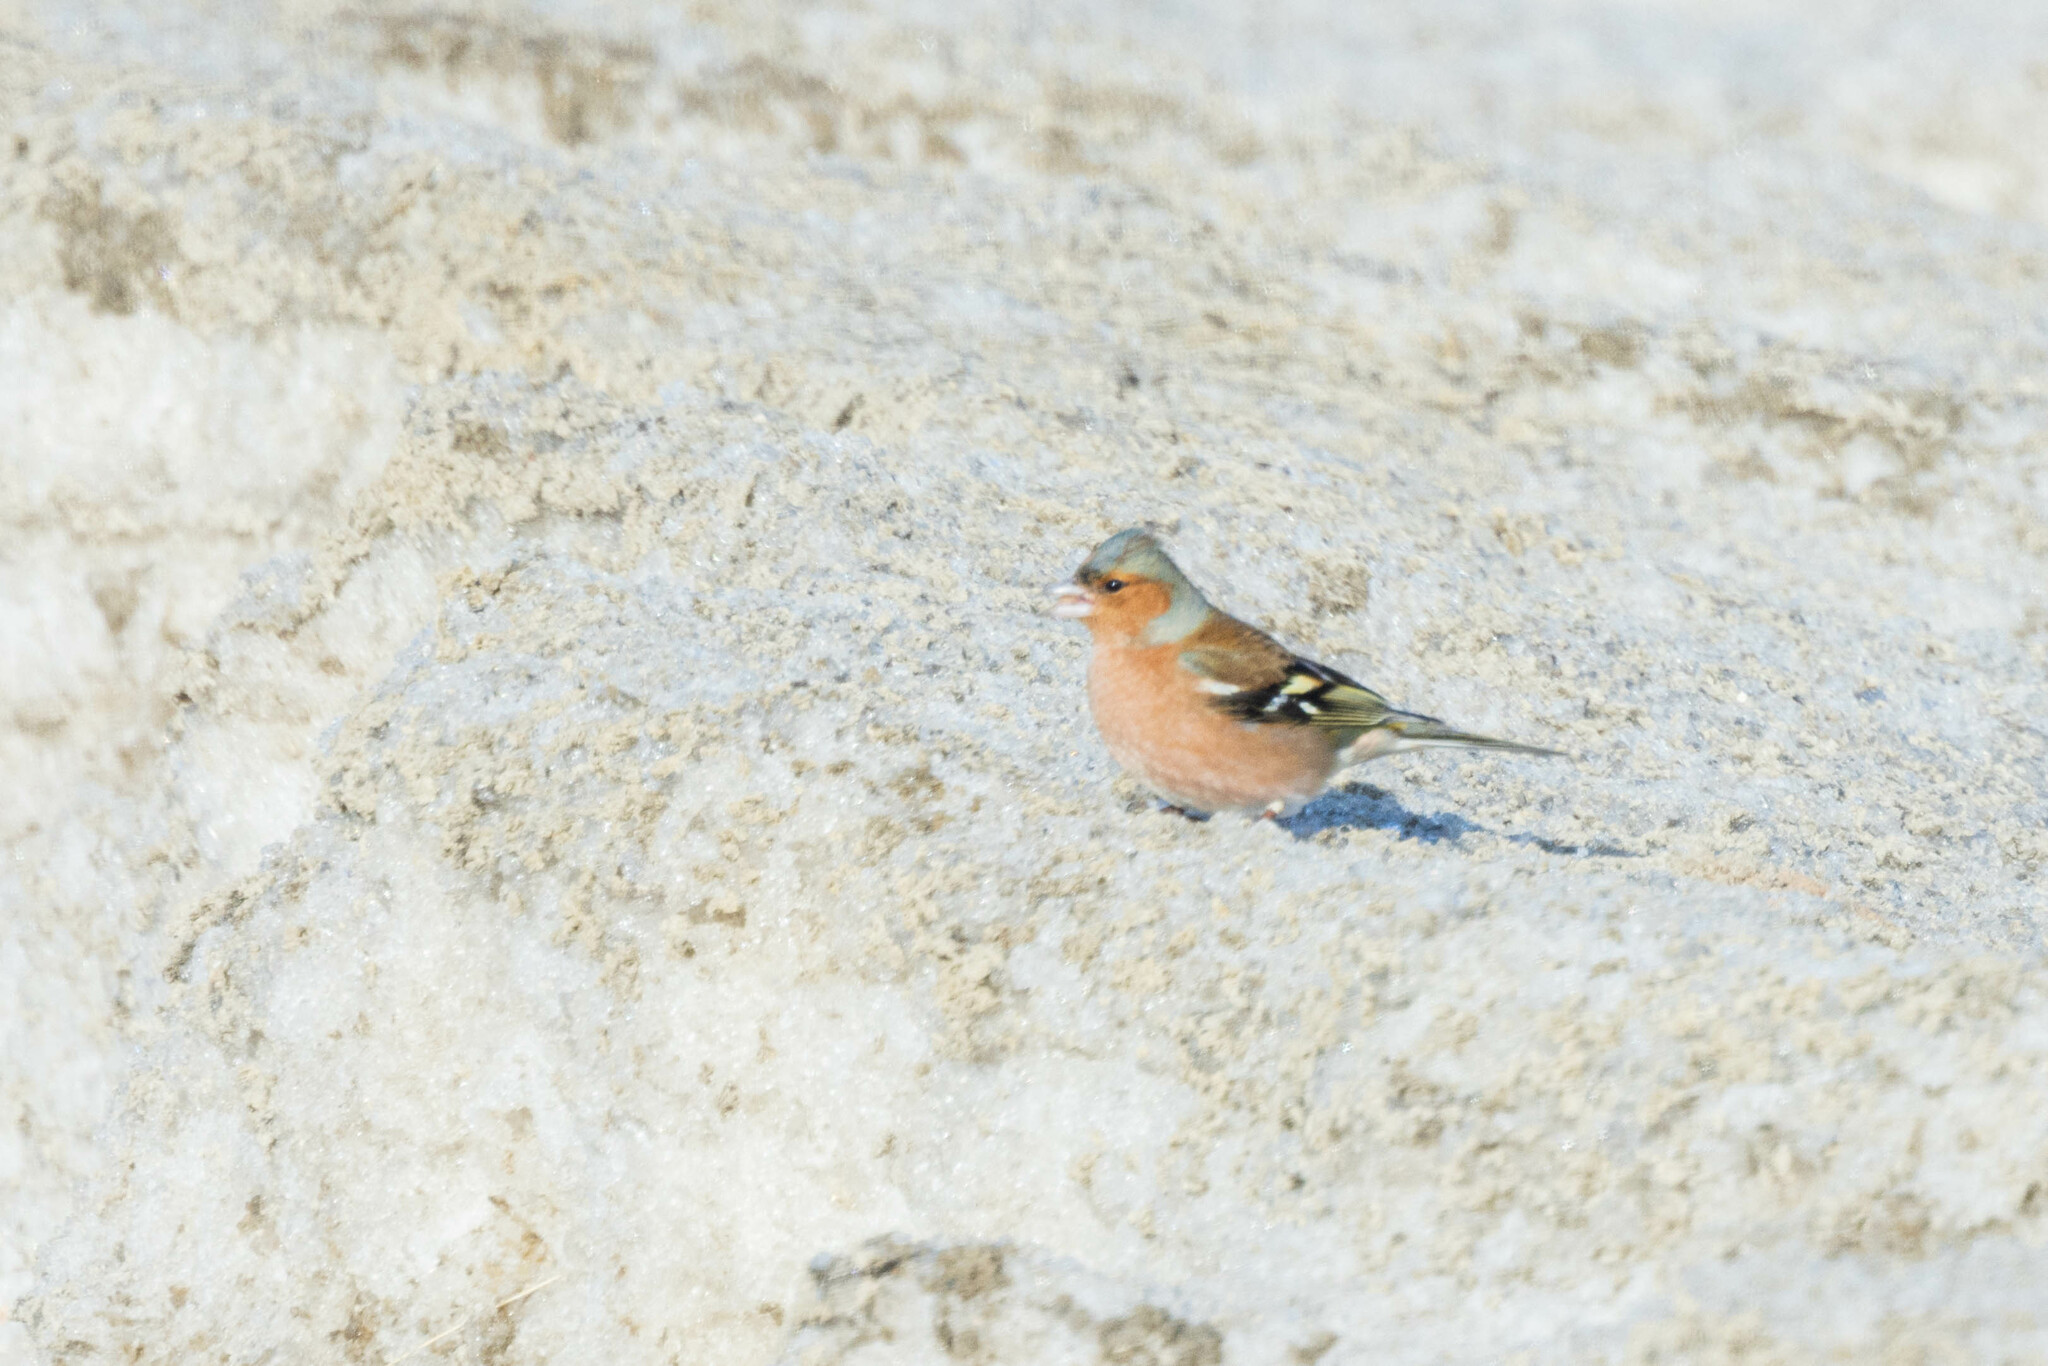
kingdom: Animalia
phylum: Chordata
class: Aves
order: Passeriformes
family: Fringillidae
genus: Fringilla
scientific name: Fringilla coelebs
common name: Common chaffinch
